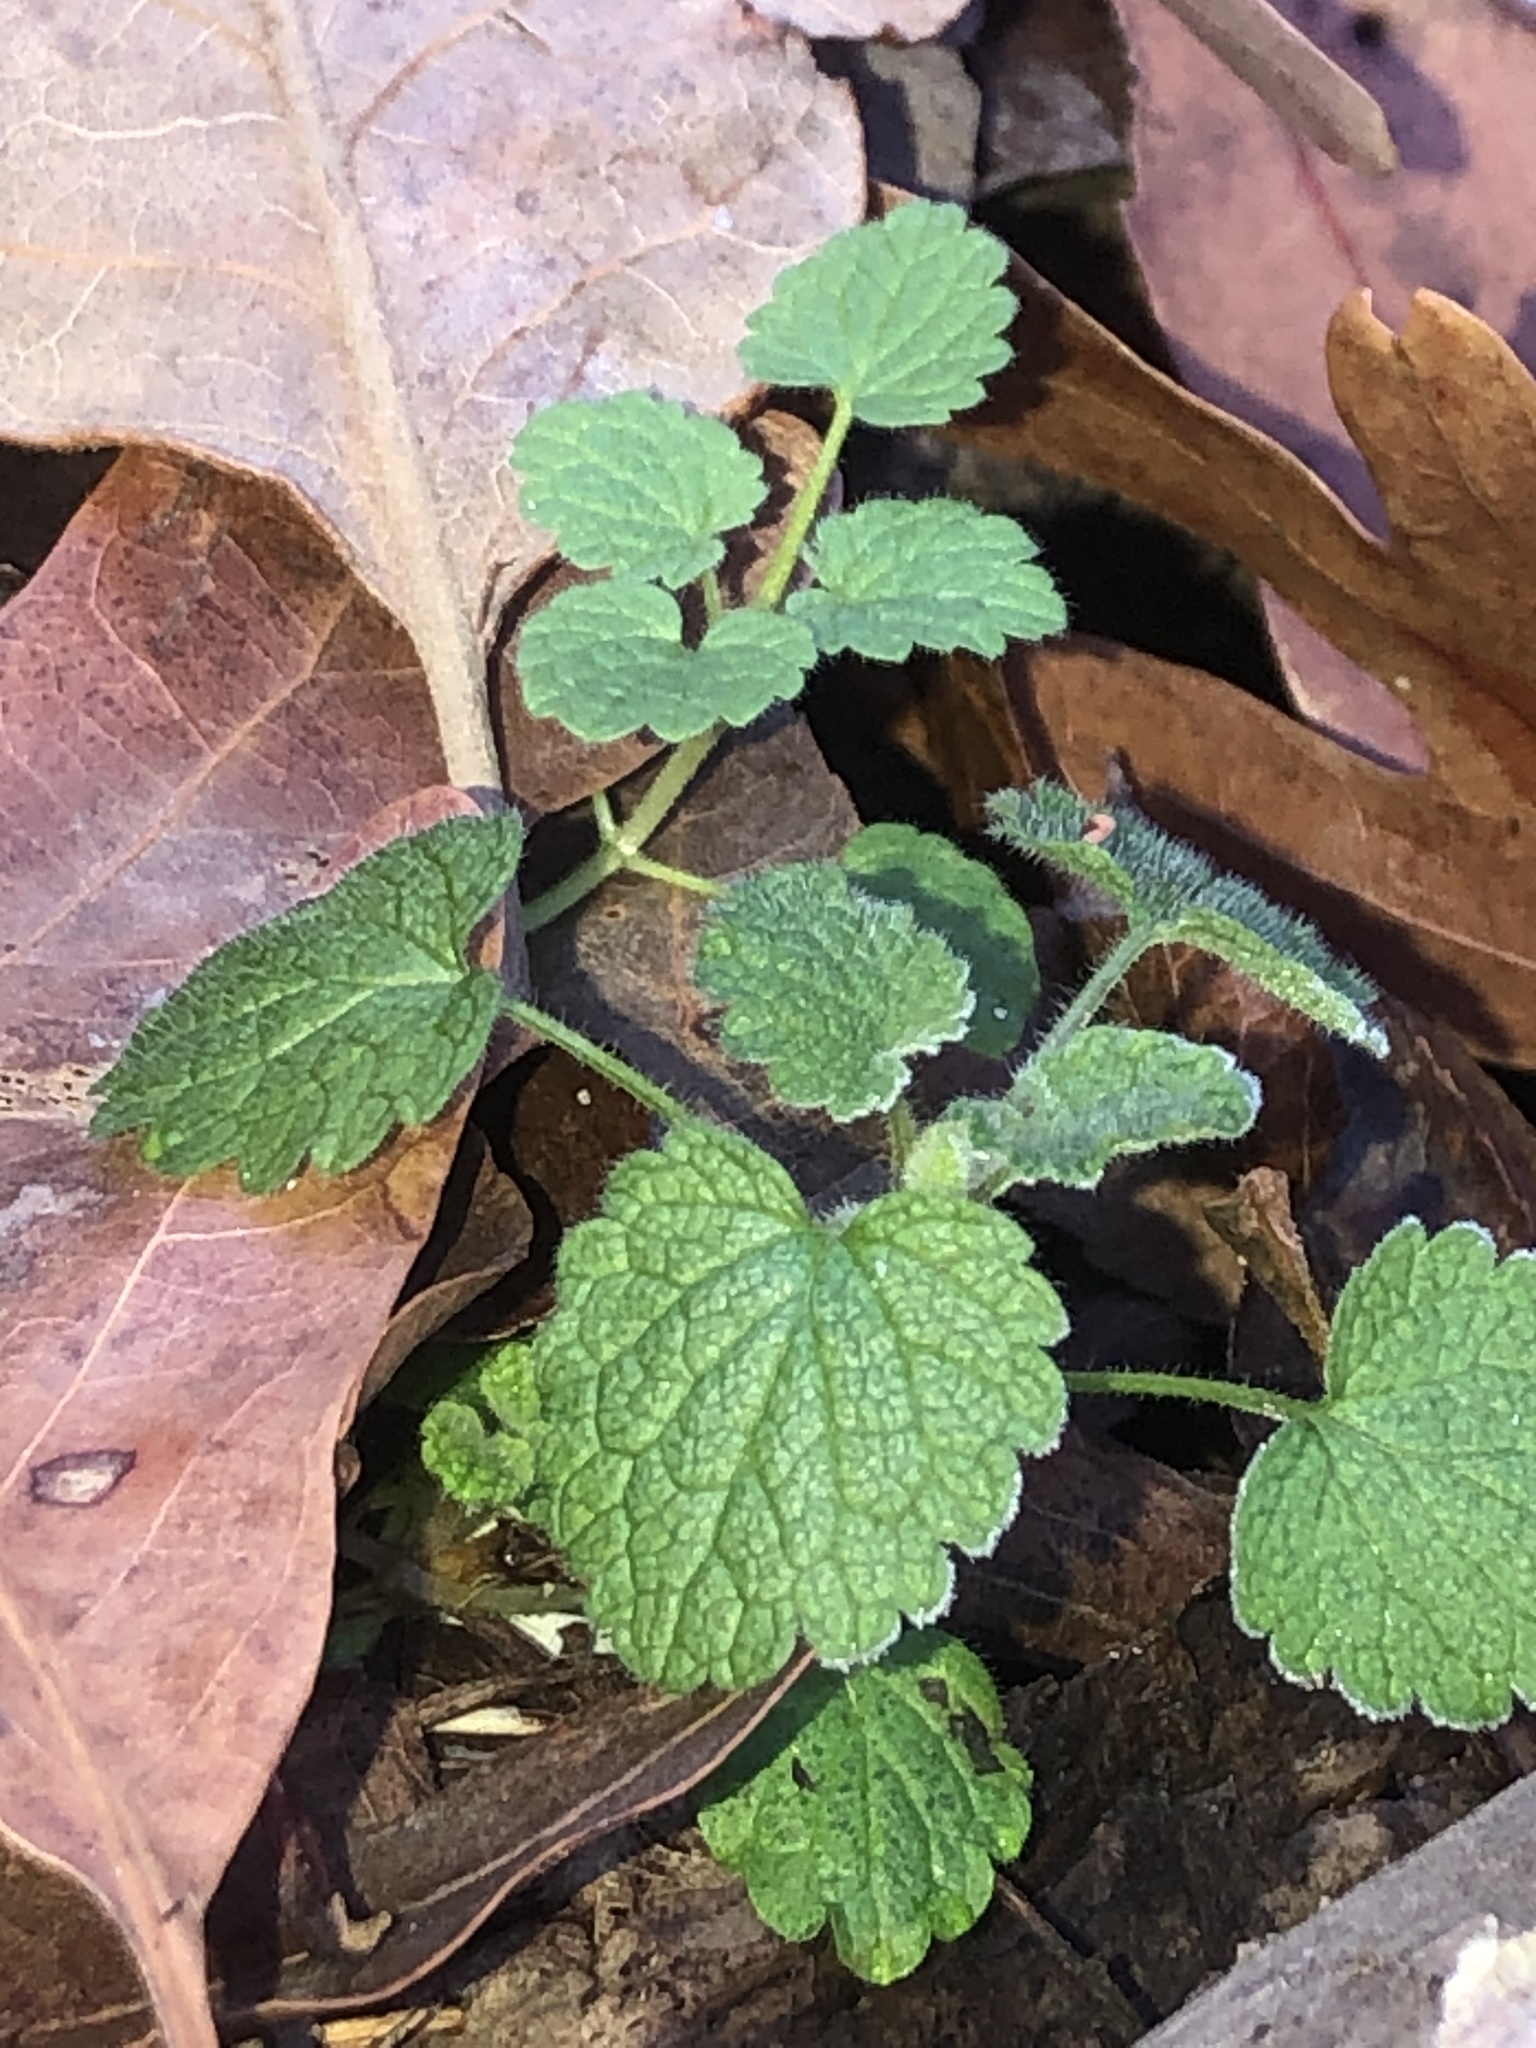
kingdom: Plantae
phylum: Tracheophyta
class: Magnoliopsida
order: Lamiales
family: Lamiaceae
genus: Lamium
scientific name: Lamium purpureum
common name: Red dead-nettle
